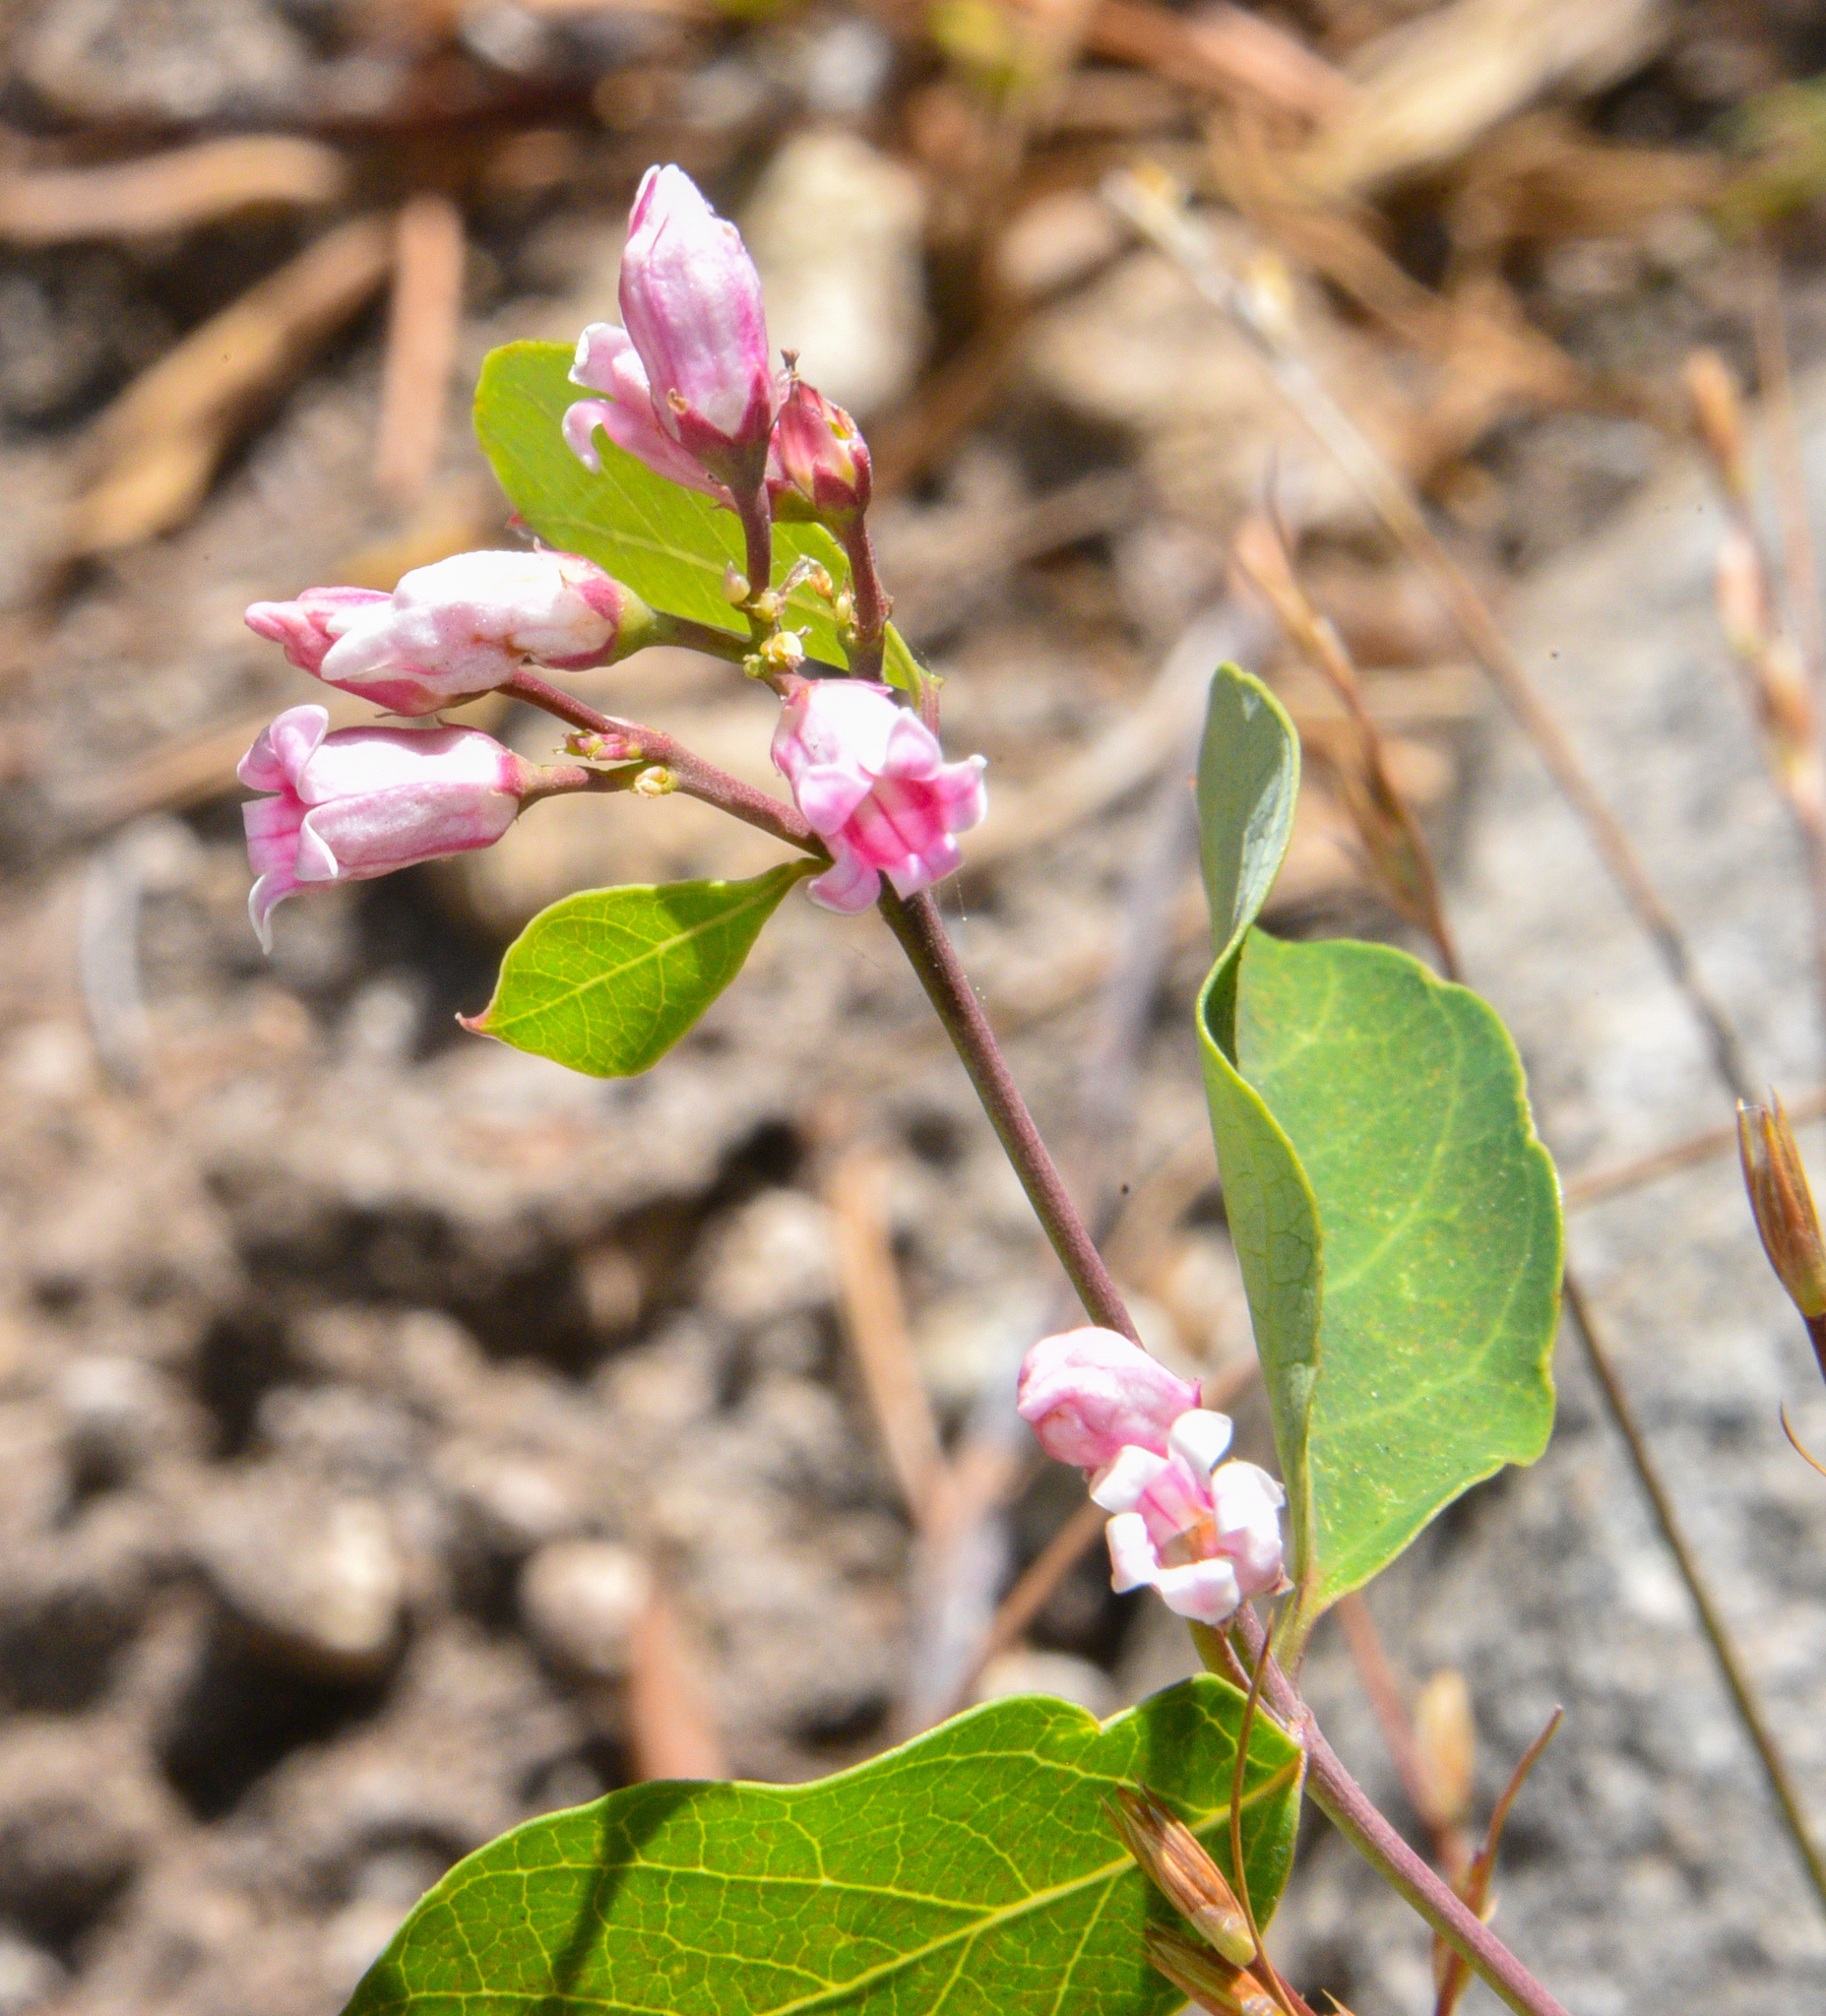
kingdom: Plantae
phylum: Tracheophyta
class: Magnoliopsida
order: Gentianales
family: Apocynaceae
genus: Apocynum
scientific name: Apocynum androsaemifolium
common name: Spreading dogbane
